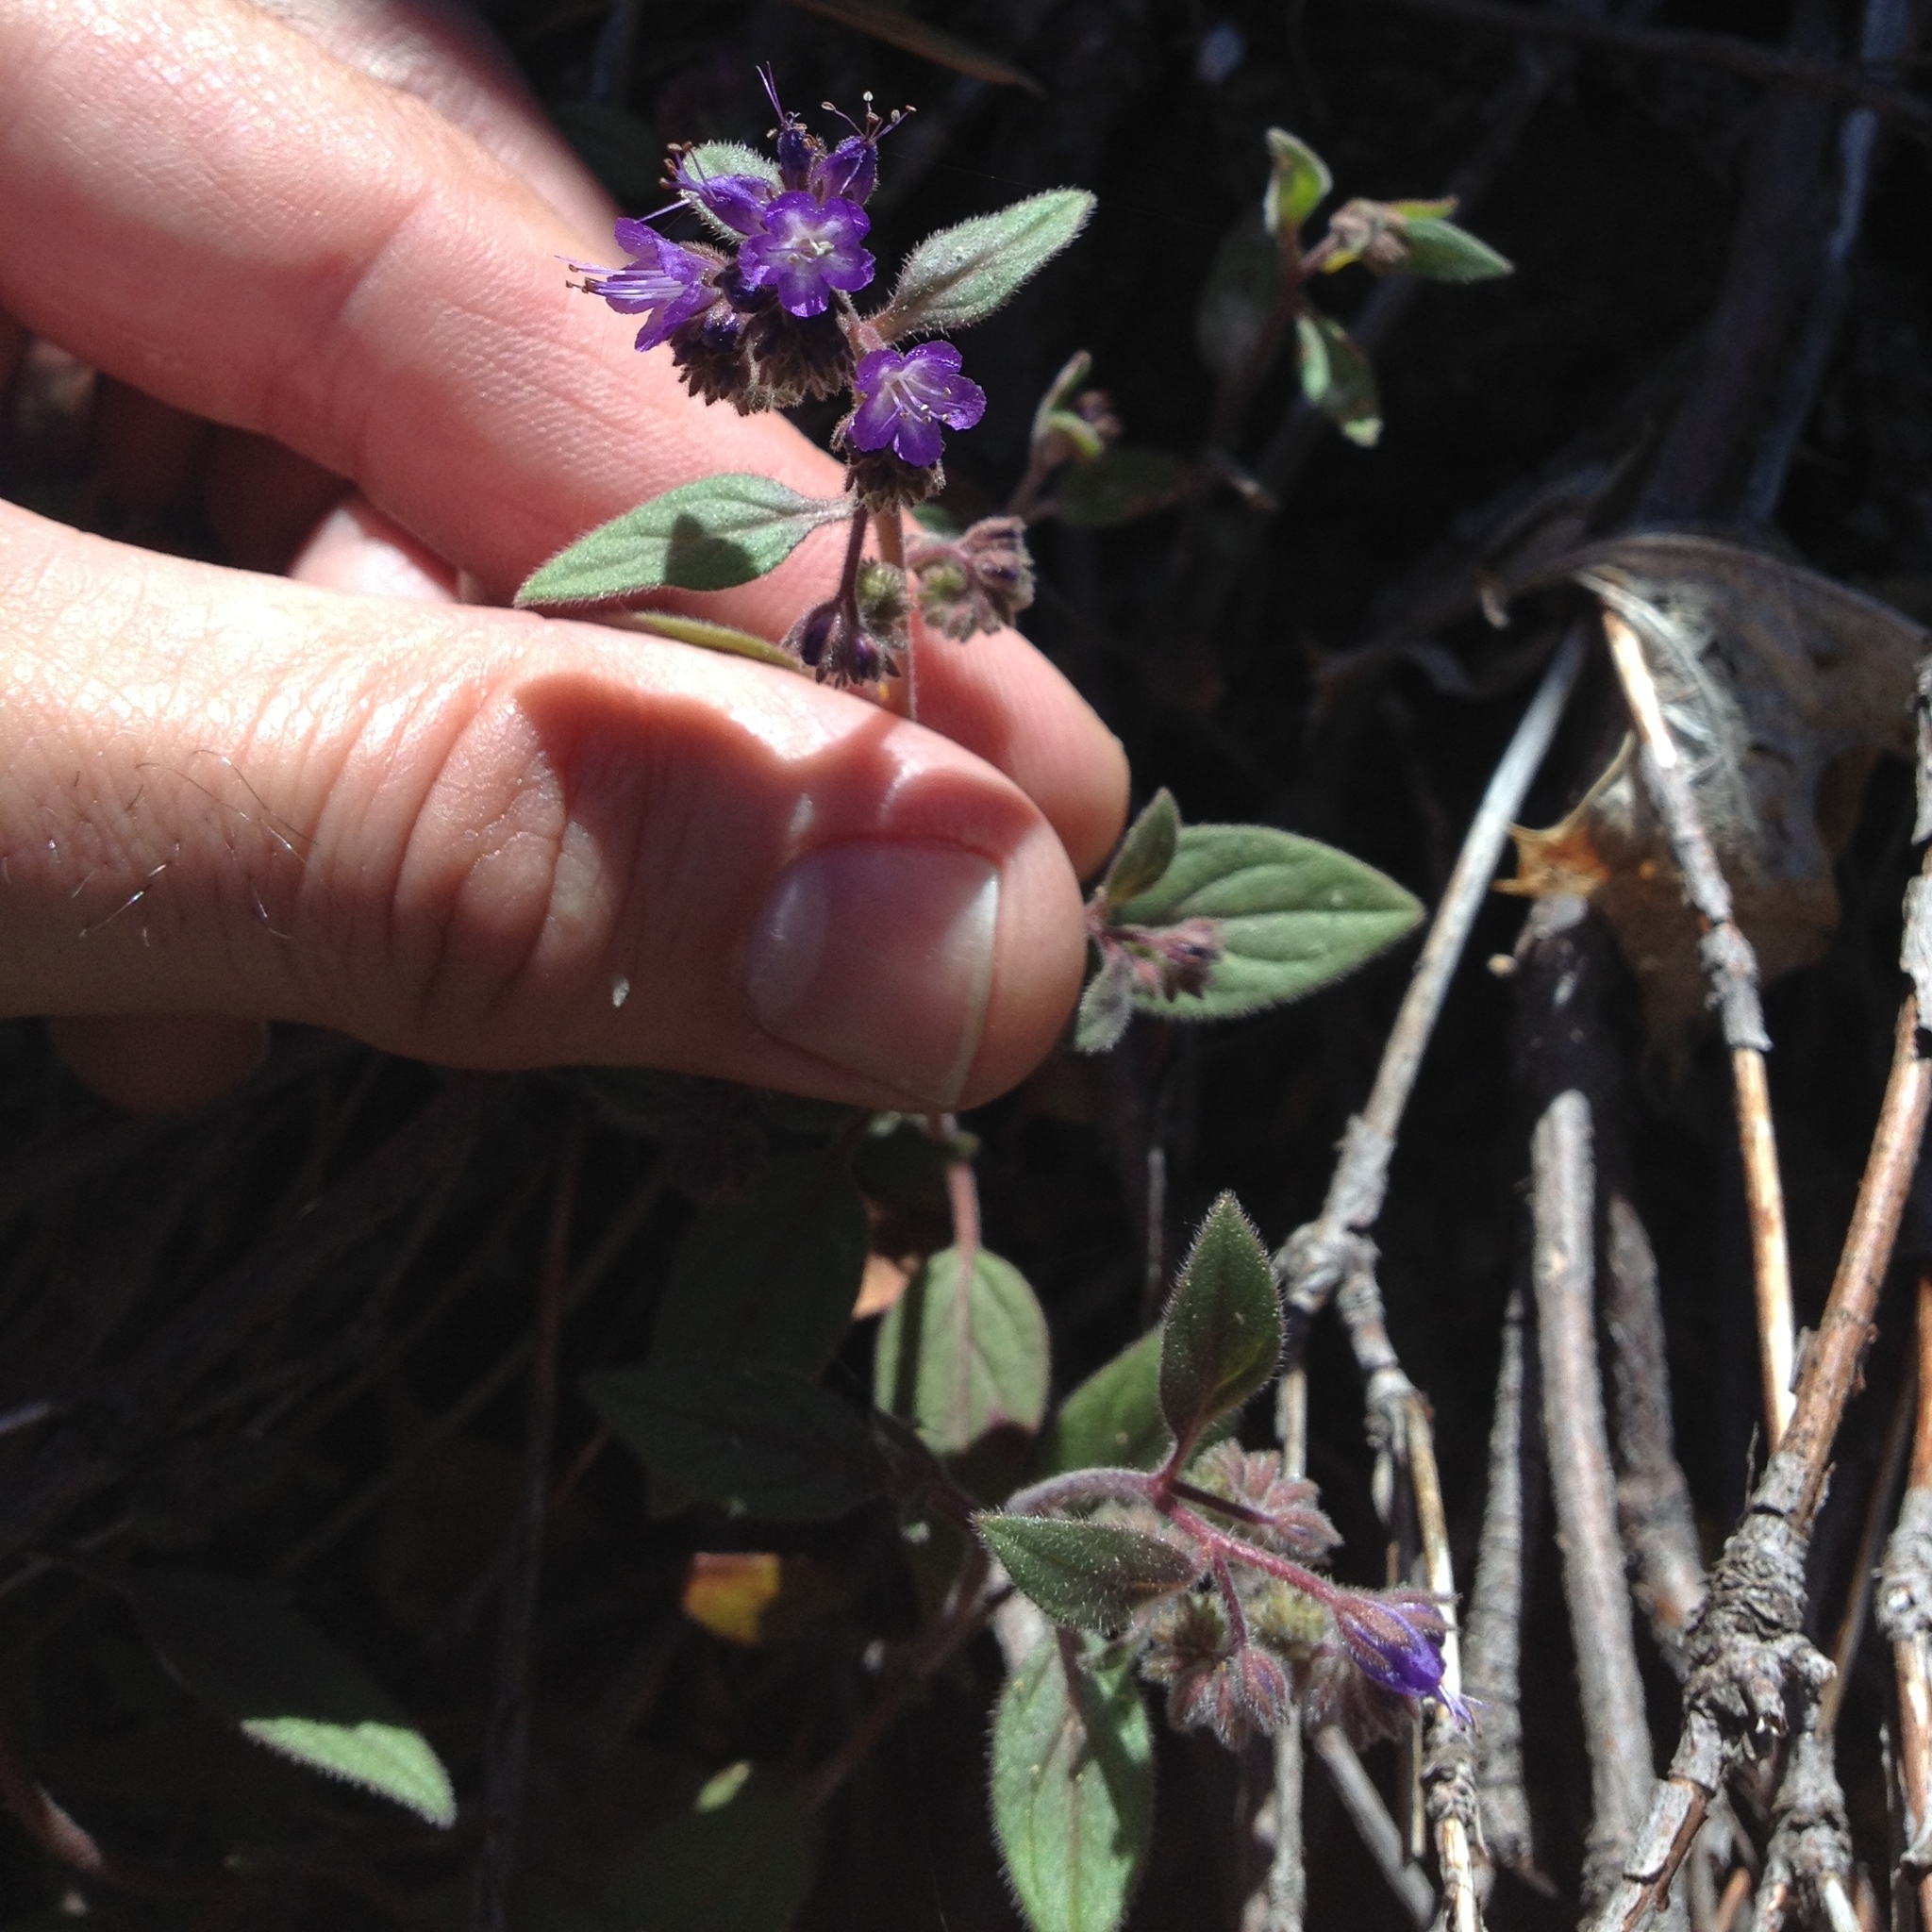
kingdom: Plantae
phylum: Tracheophyta
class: Magnoliopsida
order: Boraginales
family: Hydrophyllaceae
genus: Phacelia
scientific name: Phacelia marcescens
